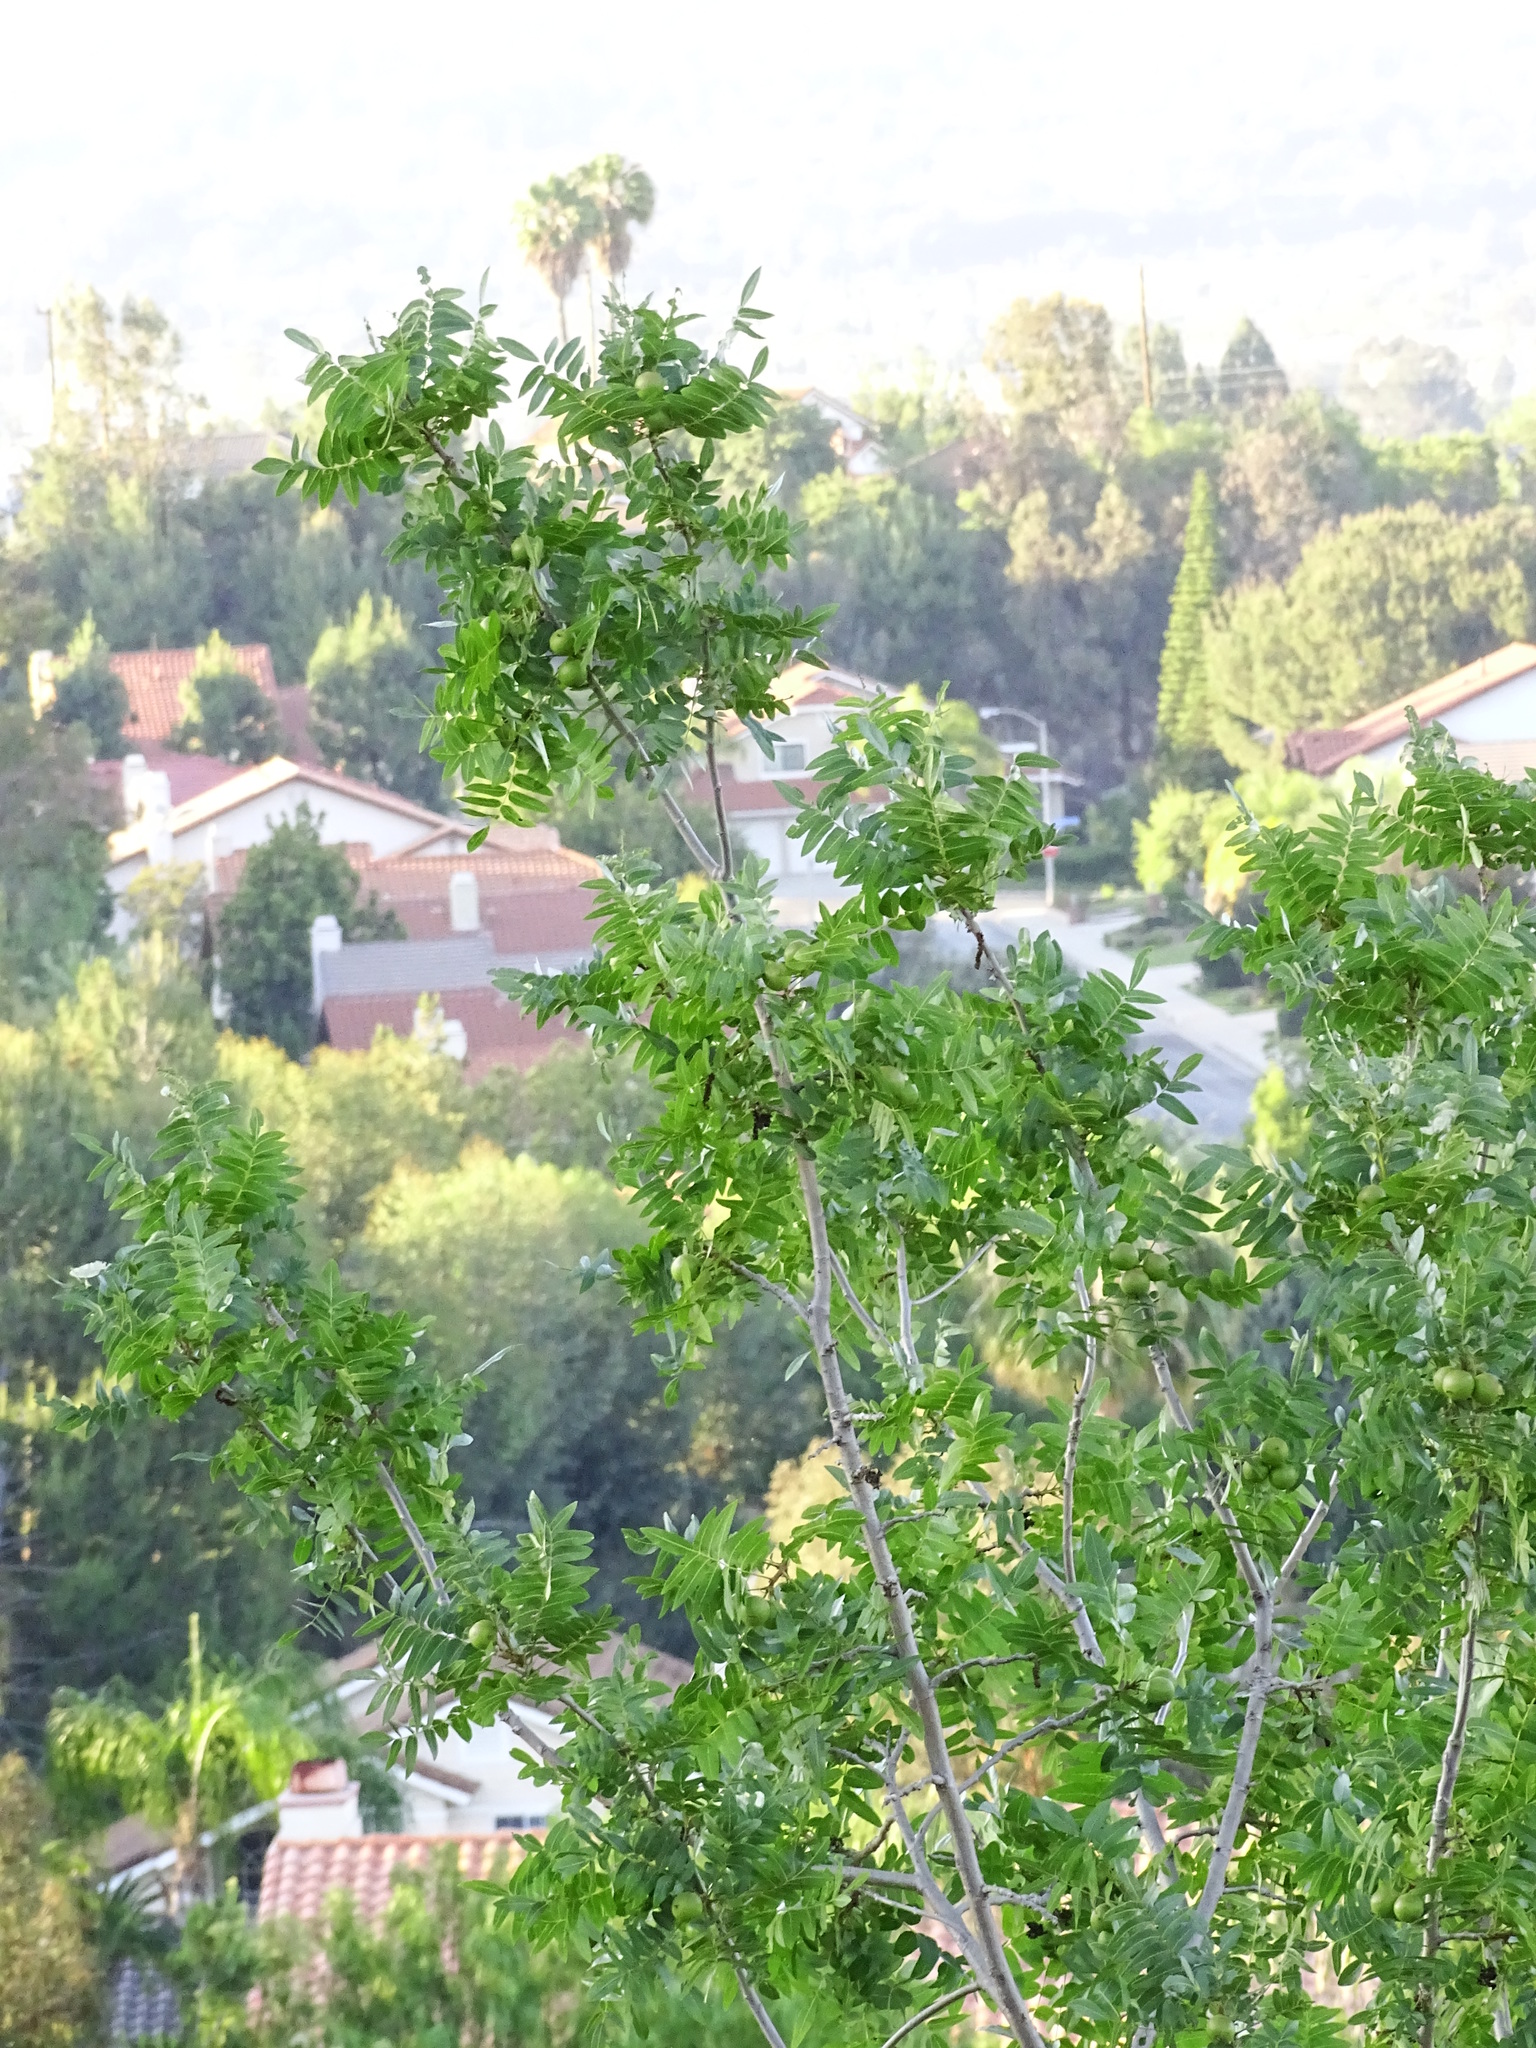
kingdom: Plantae
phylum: Tracheophyta
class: Magnoliopsida
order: Fagales
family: Juglandaceae
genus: Juglans
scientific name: Juglans californica
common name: Southern california black walnut
